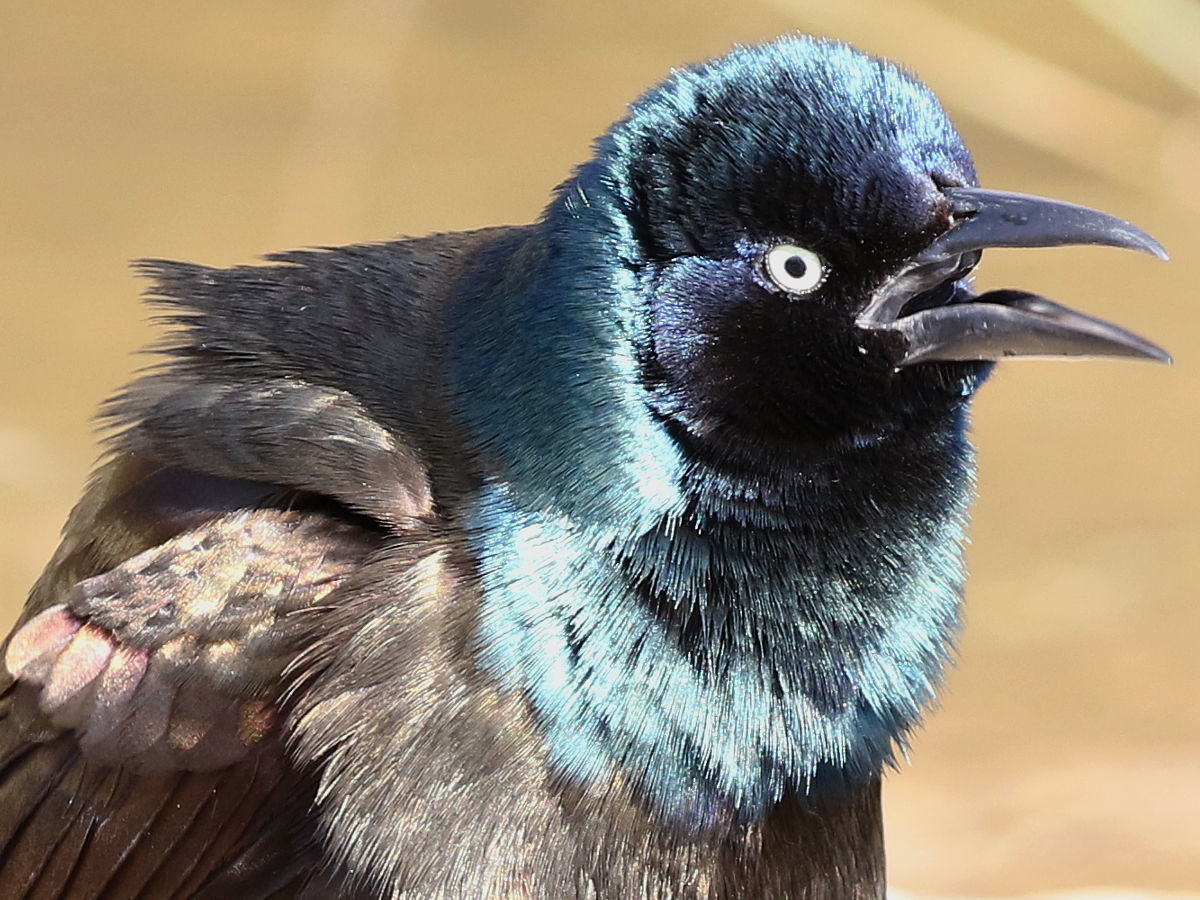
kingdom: Animalia
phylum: Chordata
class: Aves
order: Passeriformes
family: Icteridae
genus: Quiscalus
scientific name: Quiscalus quiscula
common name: Common grackle
